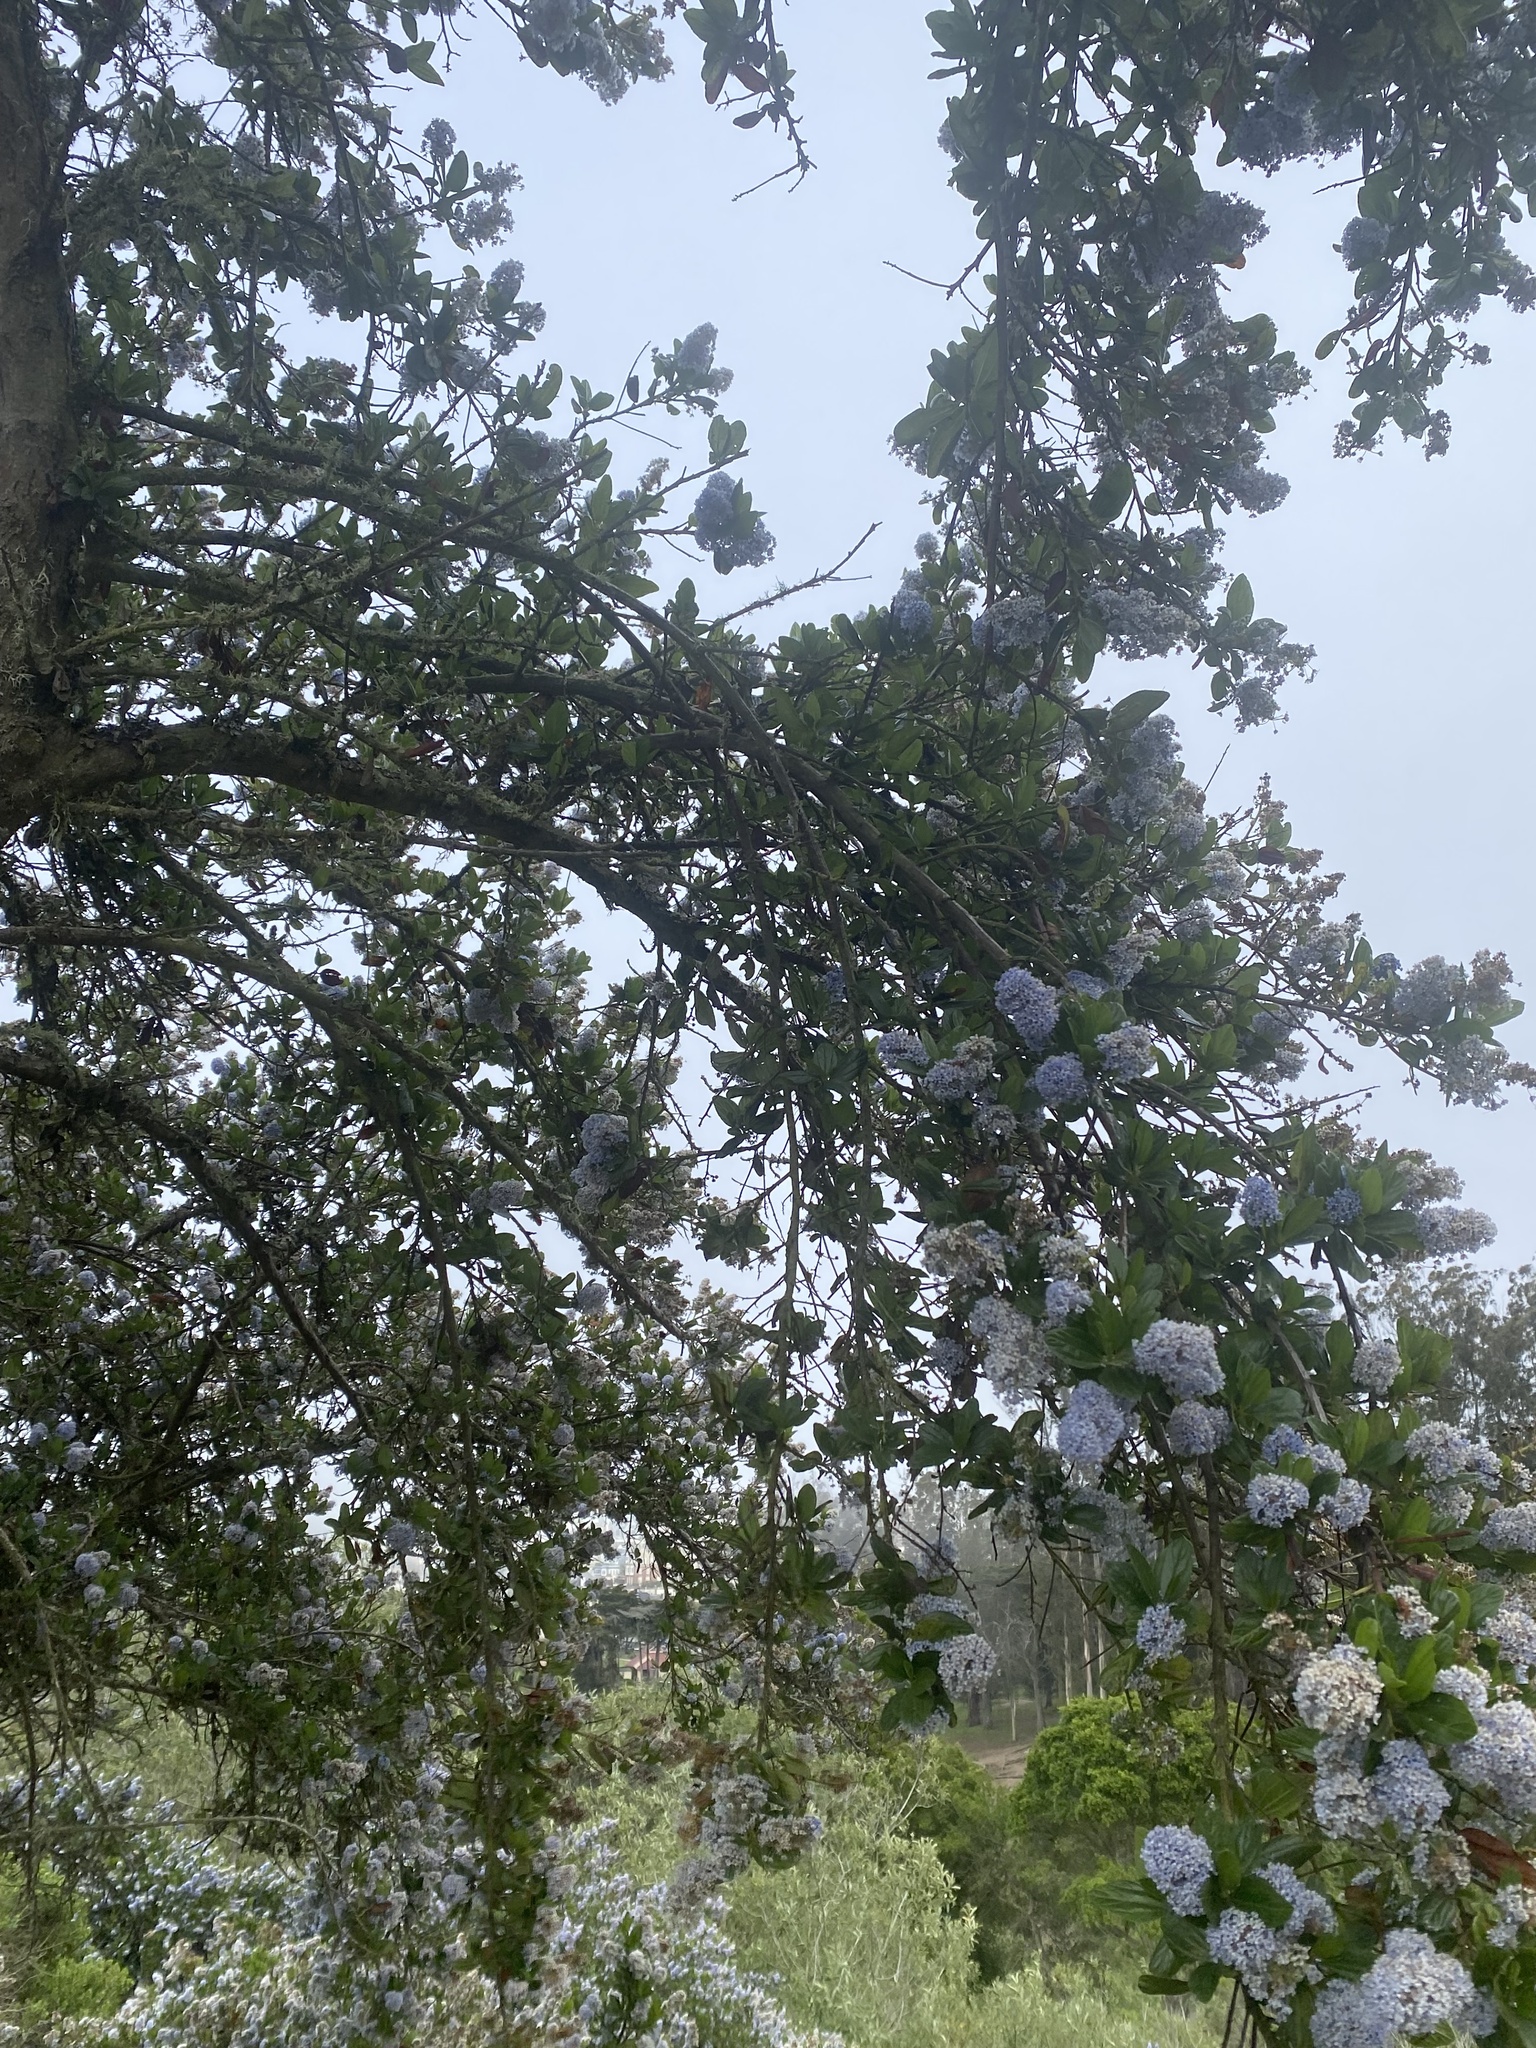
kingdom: Plantae
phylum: Tracheophyta
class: Magnoliopsida
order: Rosales
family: Rhamnaceae
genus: Ceanothus
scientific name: Ceanothus thyrsiflorus
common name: California-lilac
